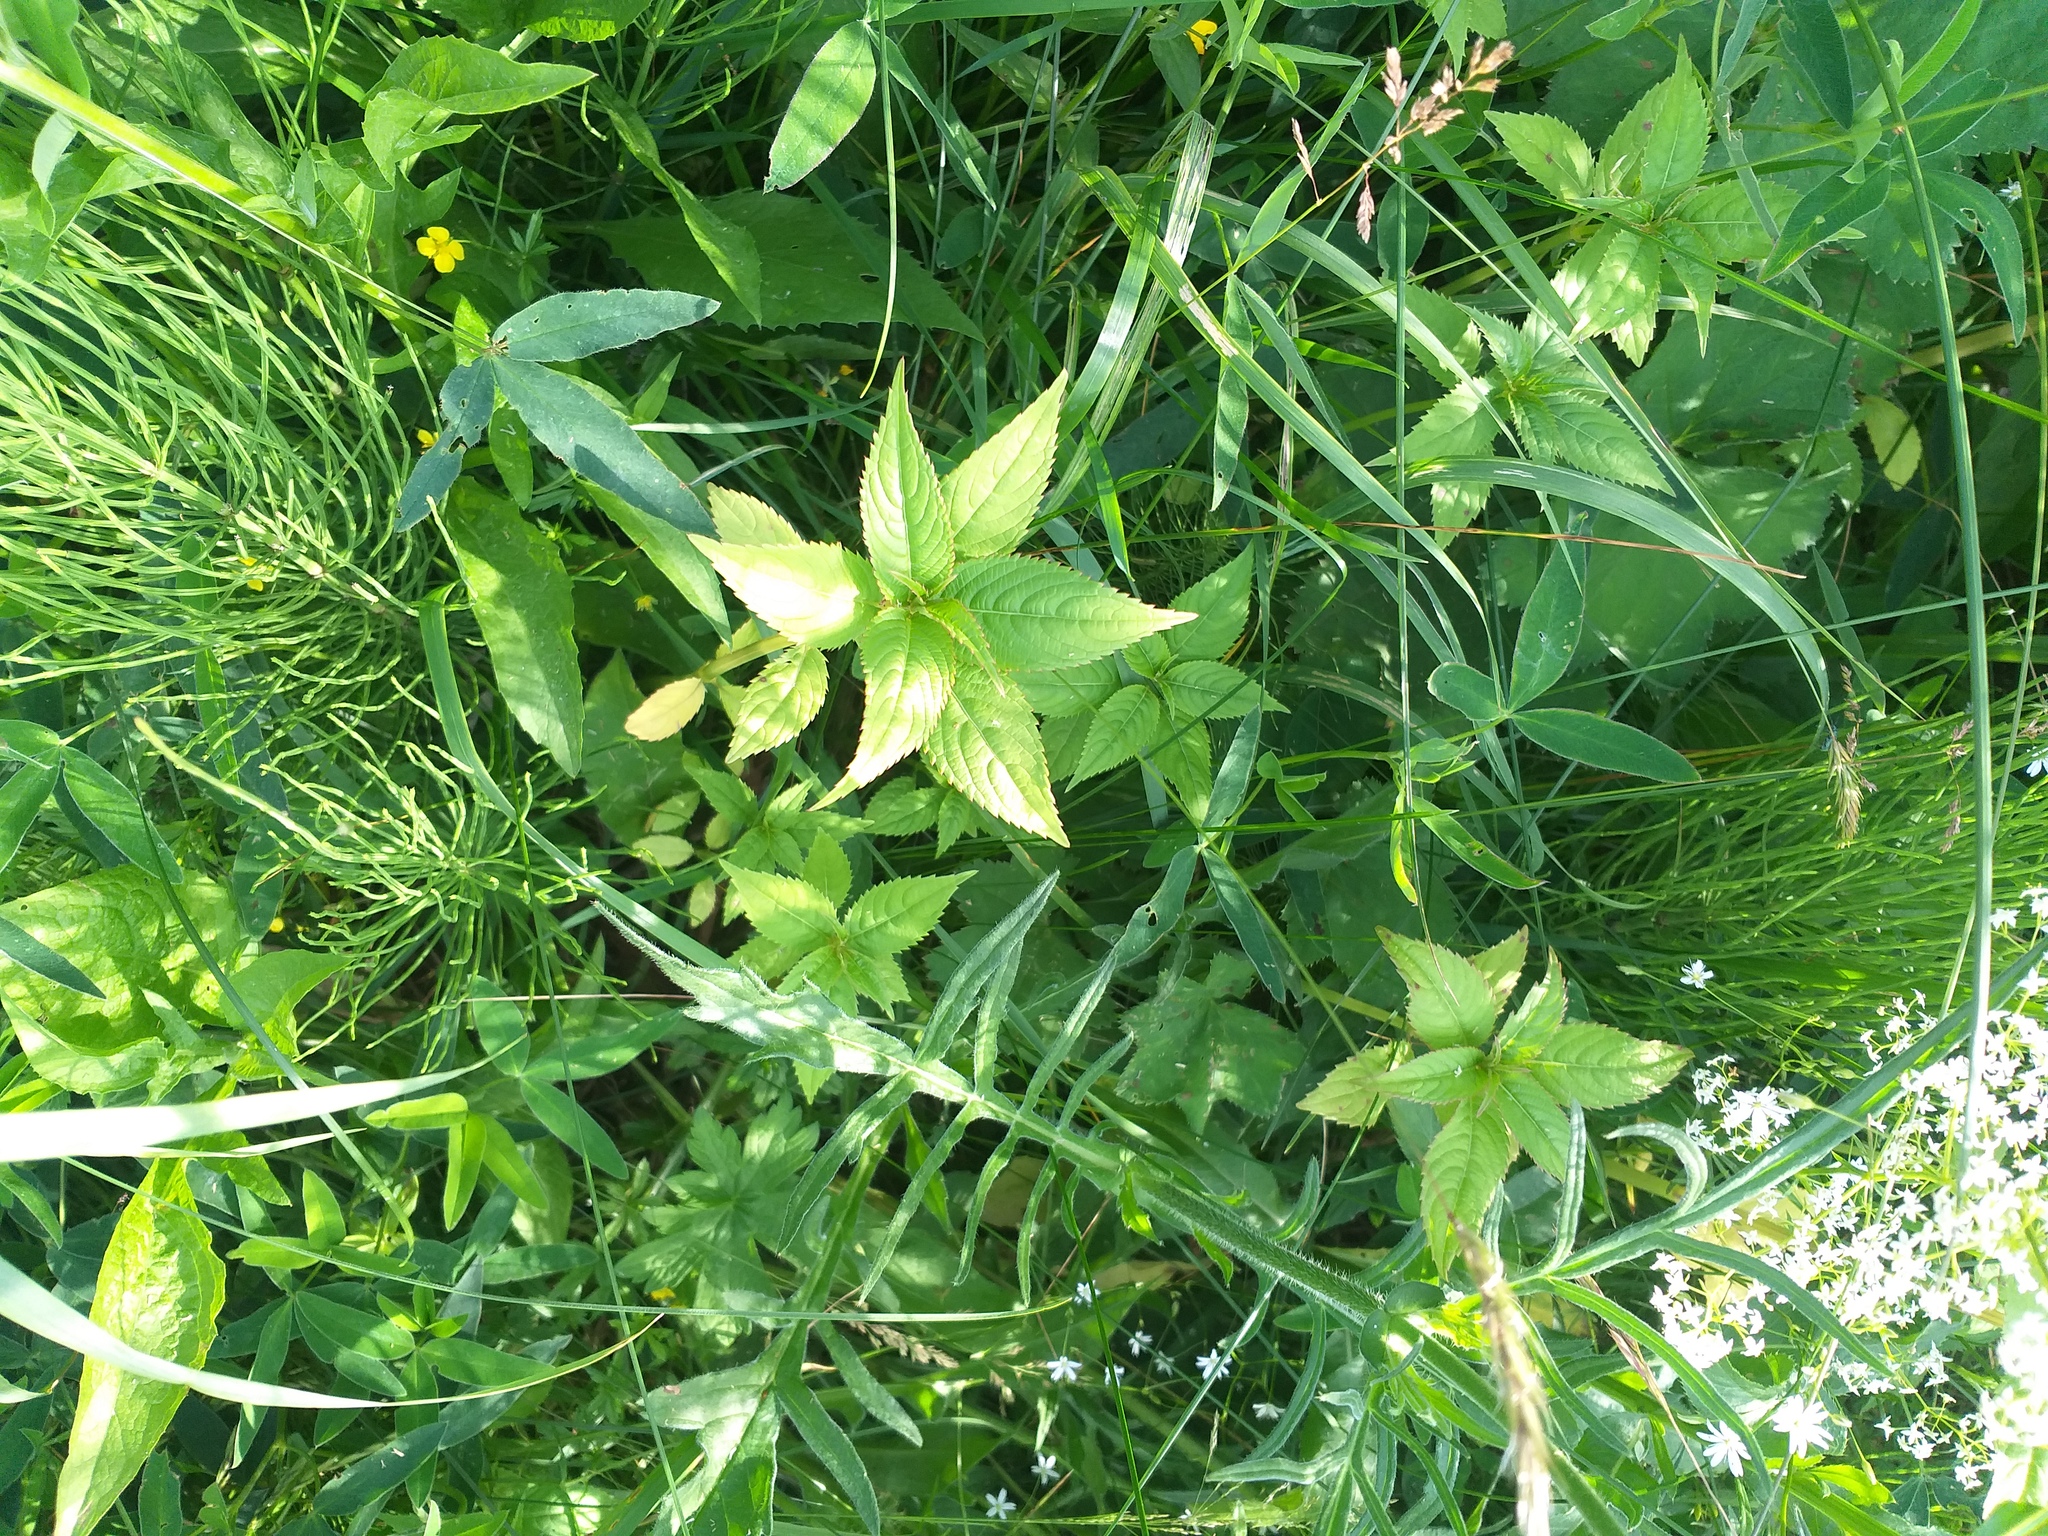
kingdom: Plantae
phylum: Tracheophyta
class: Magnoliopsida
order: Ericales
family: Balsaminaceae
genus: Impatiens
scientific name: Impatiens glandulifera
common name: Himalayan balsam
